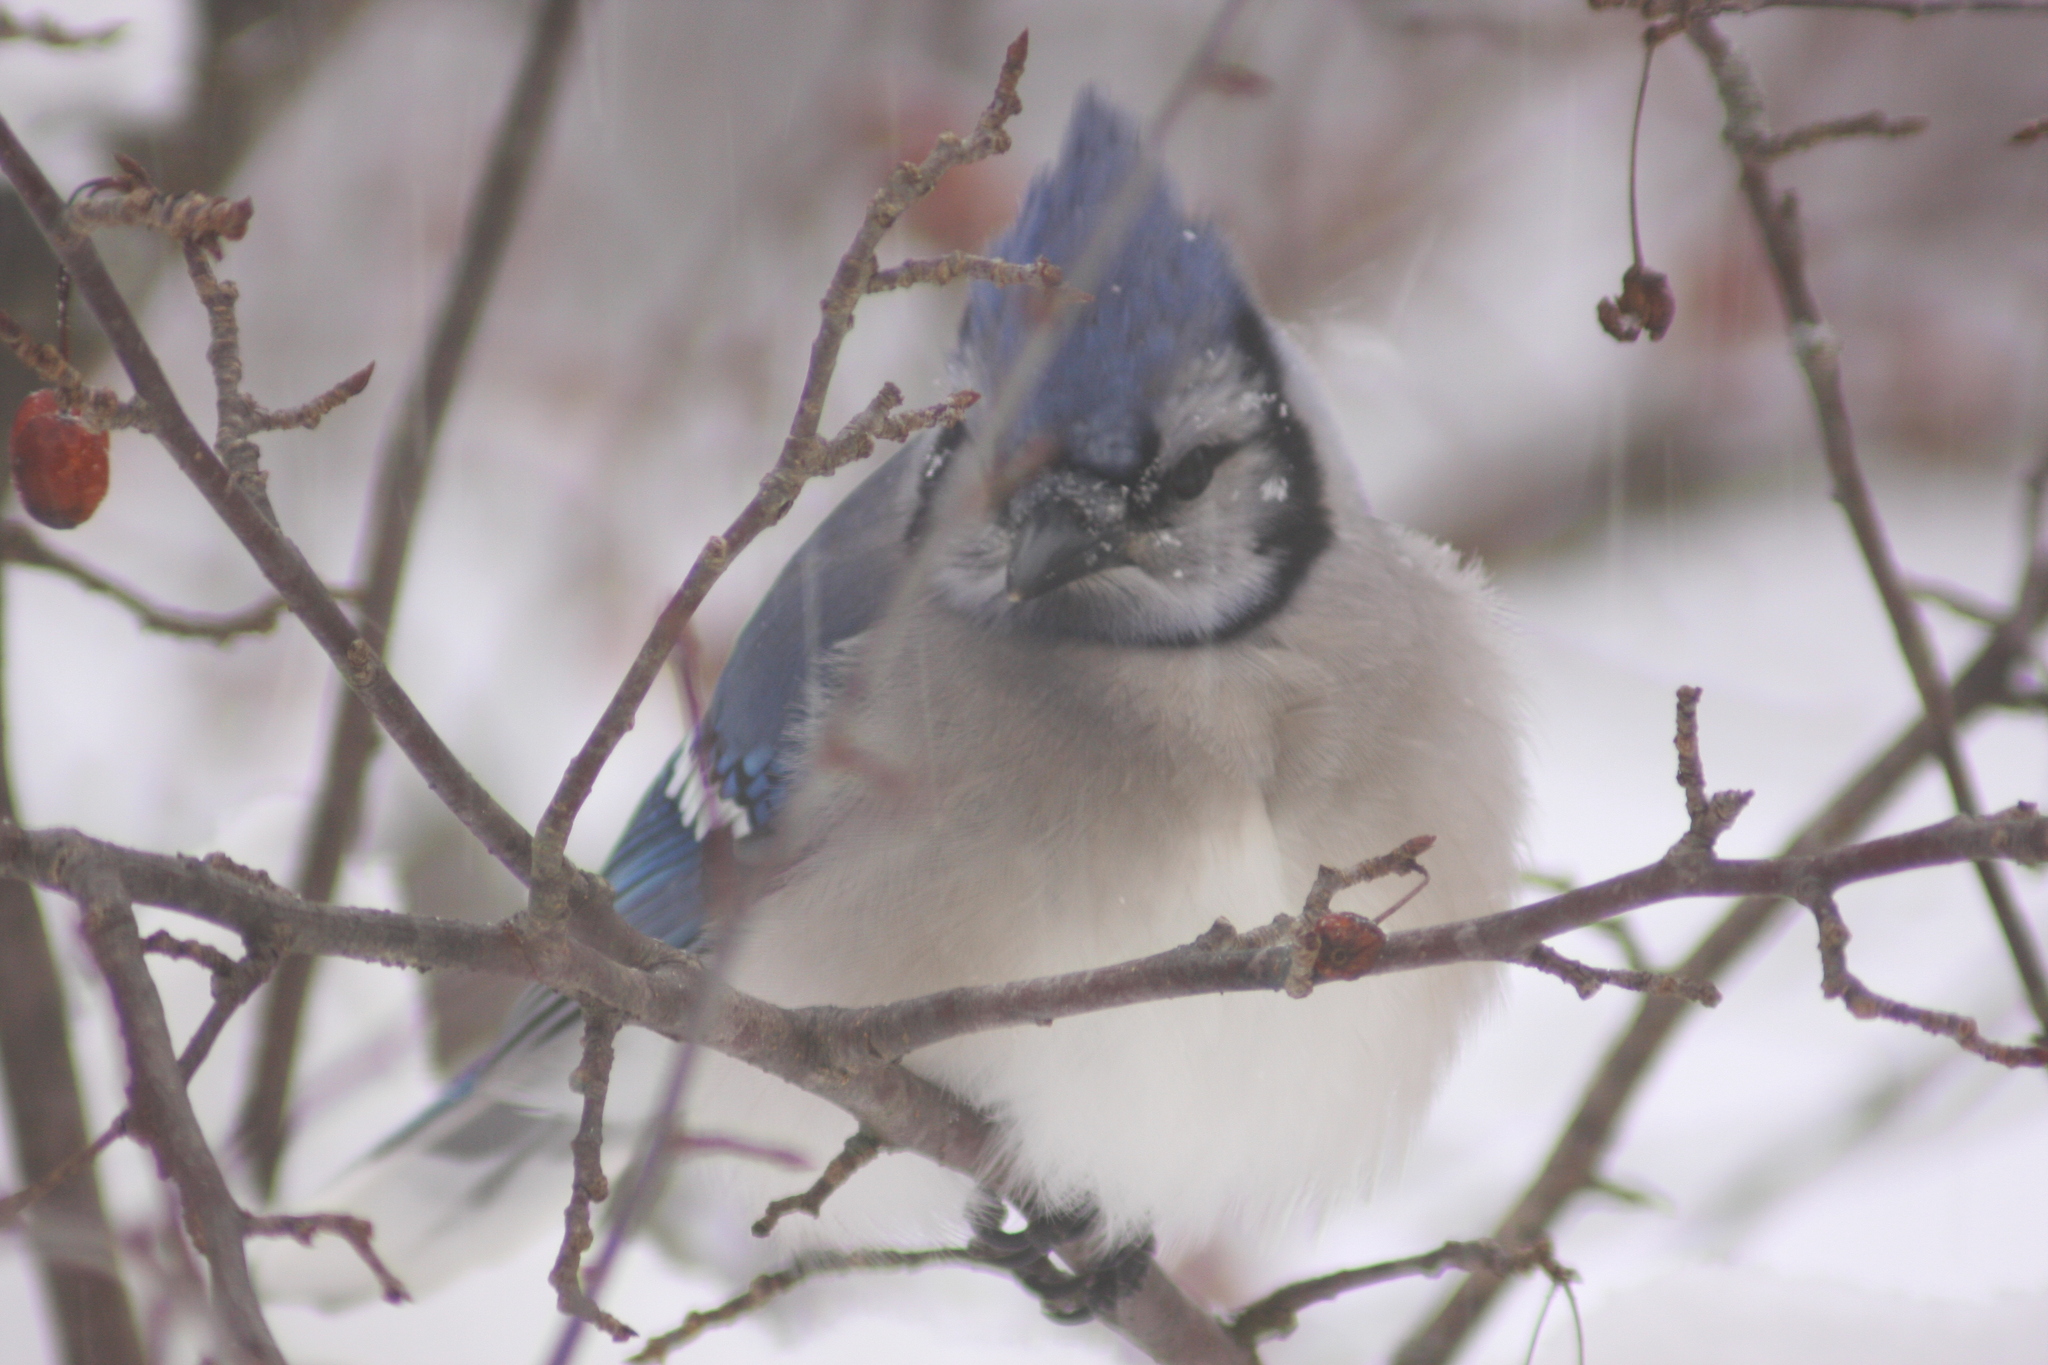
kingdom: Animalia
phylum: Chordata
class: Aves
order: Passeriformes
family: Corvidae
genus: Cyanocitta
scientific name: Cyanocitta cristata
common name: Blue jay
